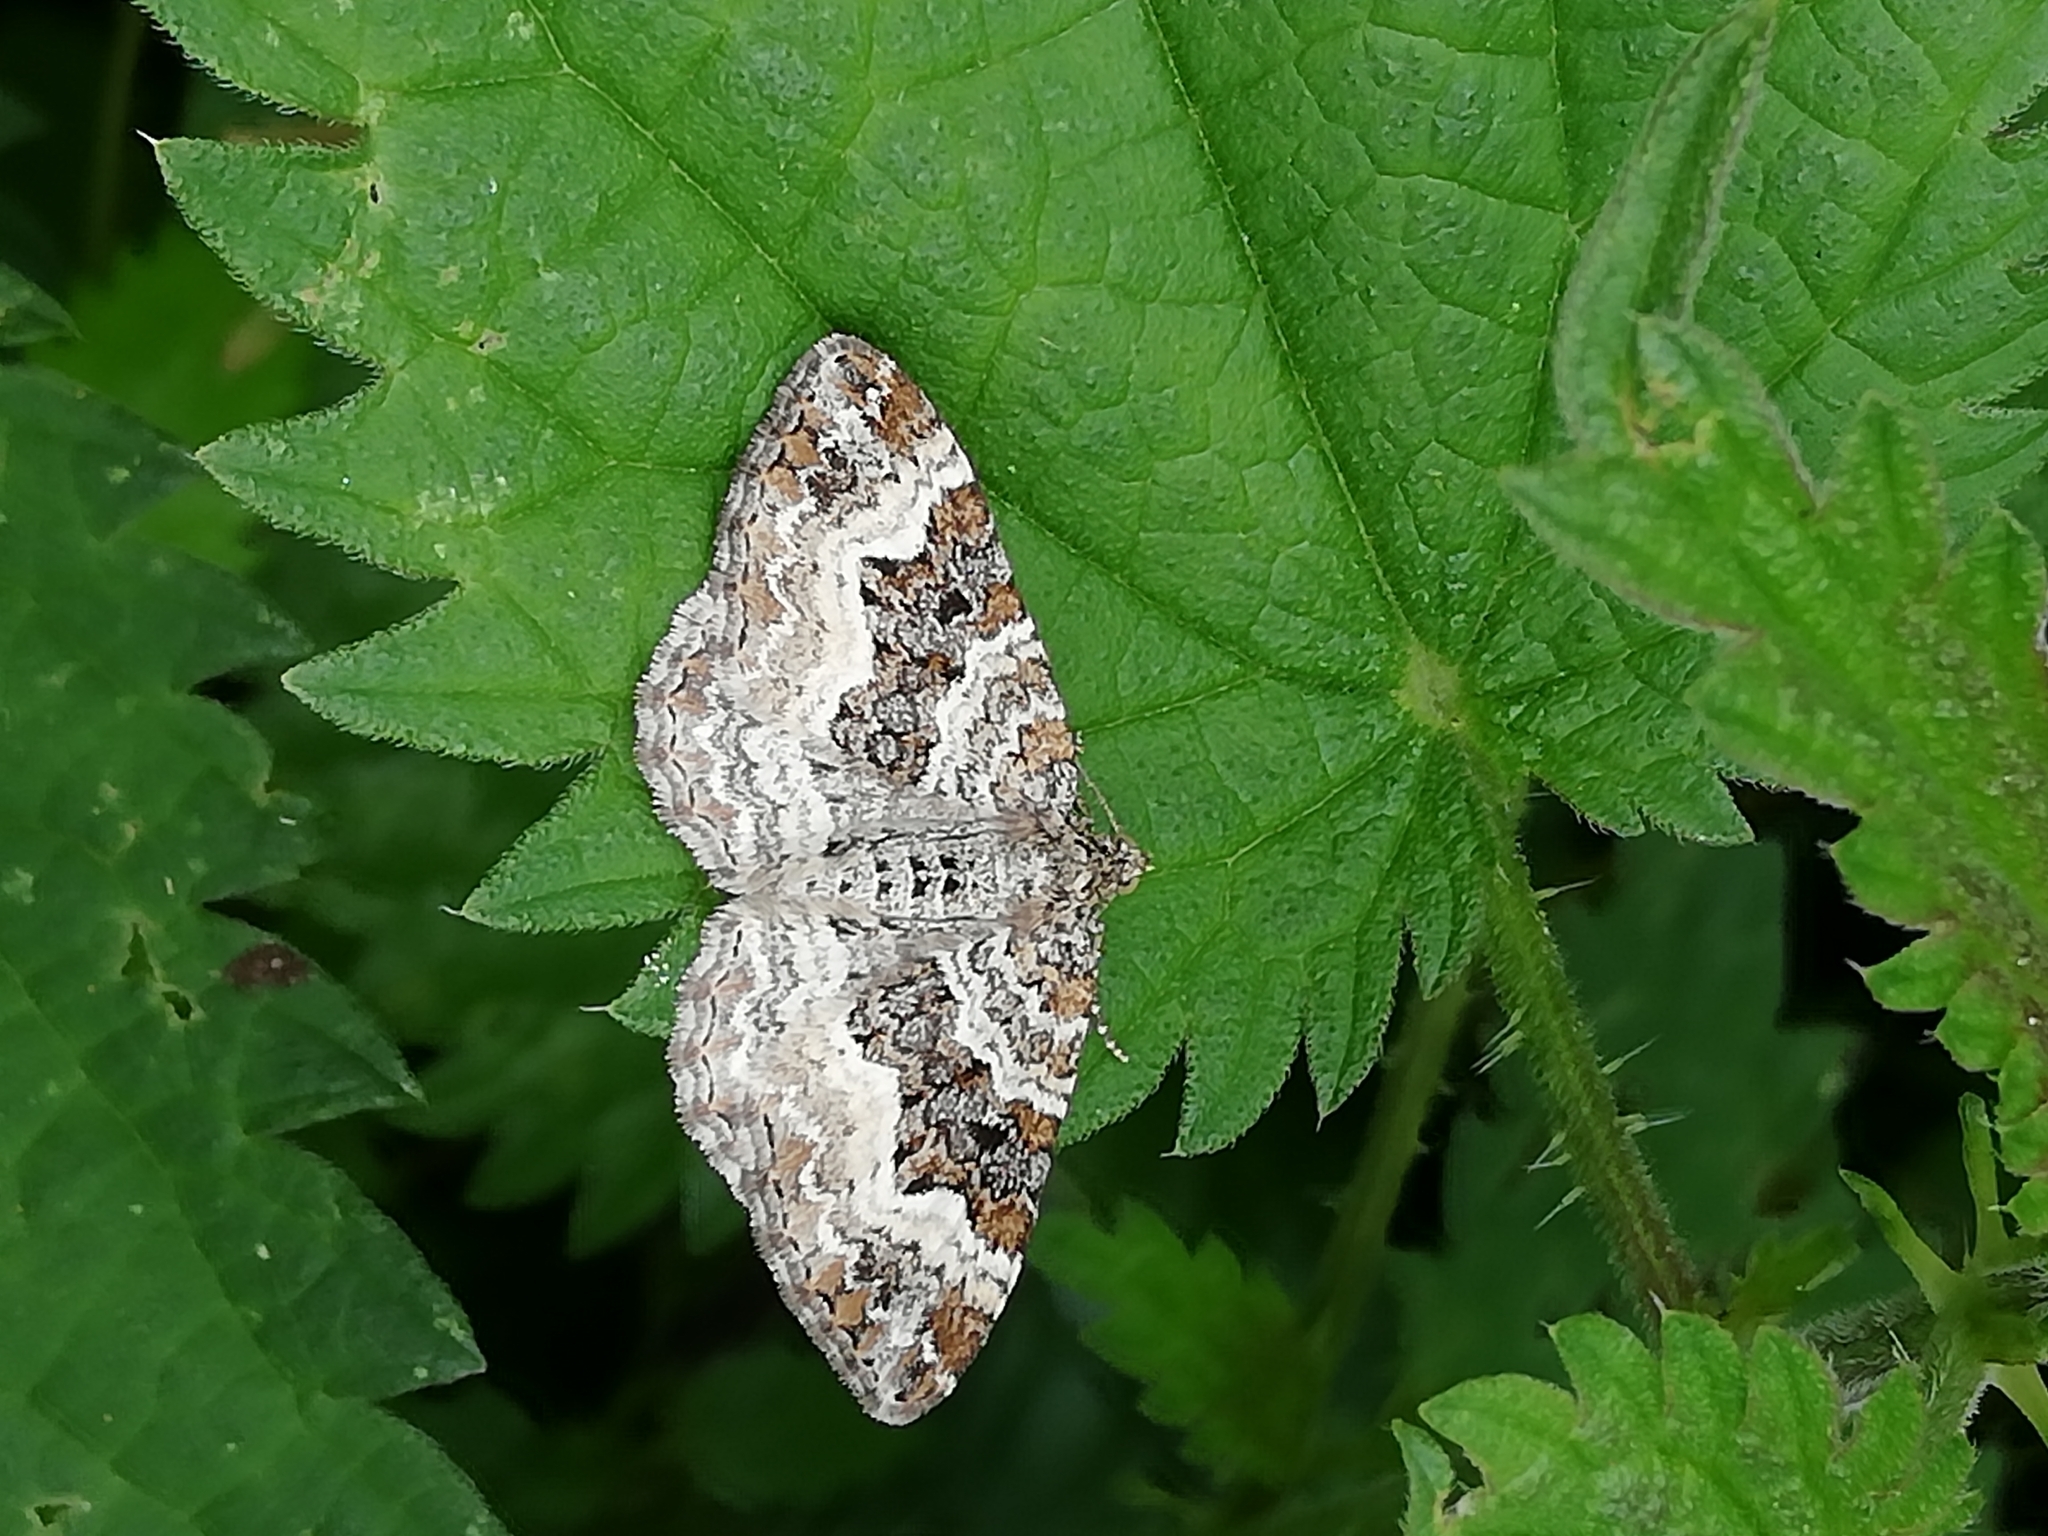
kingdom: Animalia
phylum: Arthropoda
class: Insecta
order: Lepidoptera
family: Geometridae
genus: Epirrhoe
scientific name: Epirrhoe alternata
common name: Common carpet
